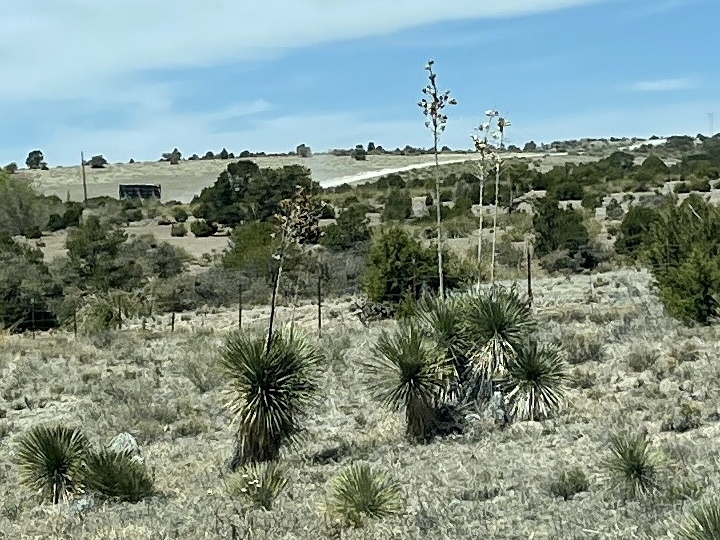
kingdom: Plantae
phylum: Tracheophyta
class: Liliopsida
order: Asparagales
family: Asparagaceae
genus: Yucca
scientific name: Yucca elata
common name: Palmella
